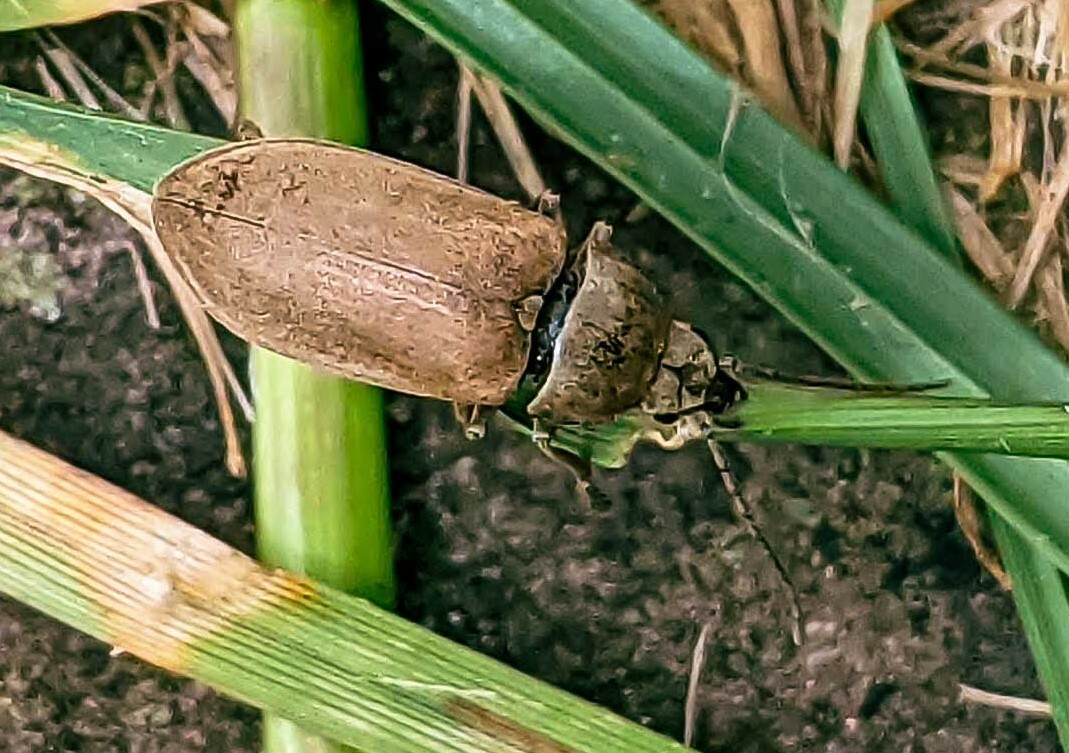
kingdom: Animalia
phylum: Arthropoda
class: Insecta
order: Coleoptera
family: Dascillidae
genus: Dascillus
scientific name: Dascillus cervinus
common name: Orchid beetle
